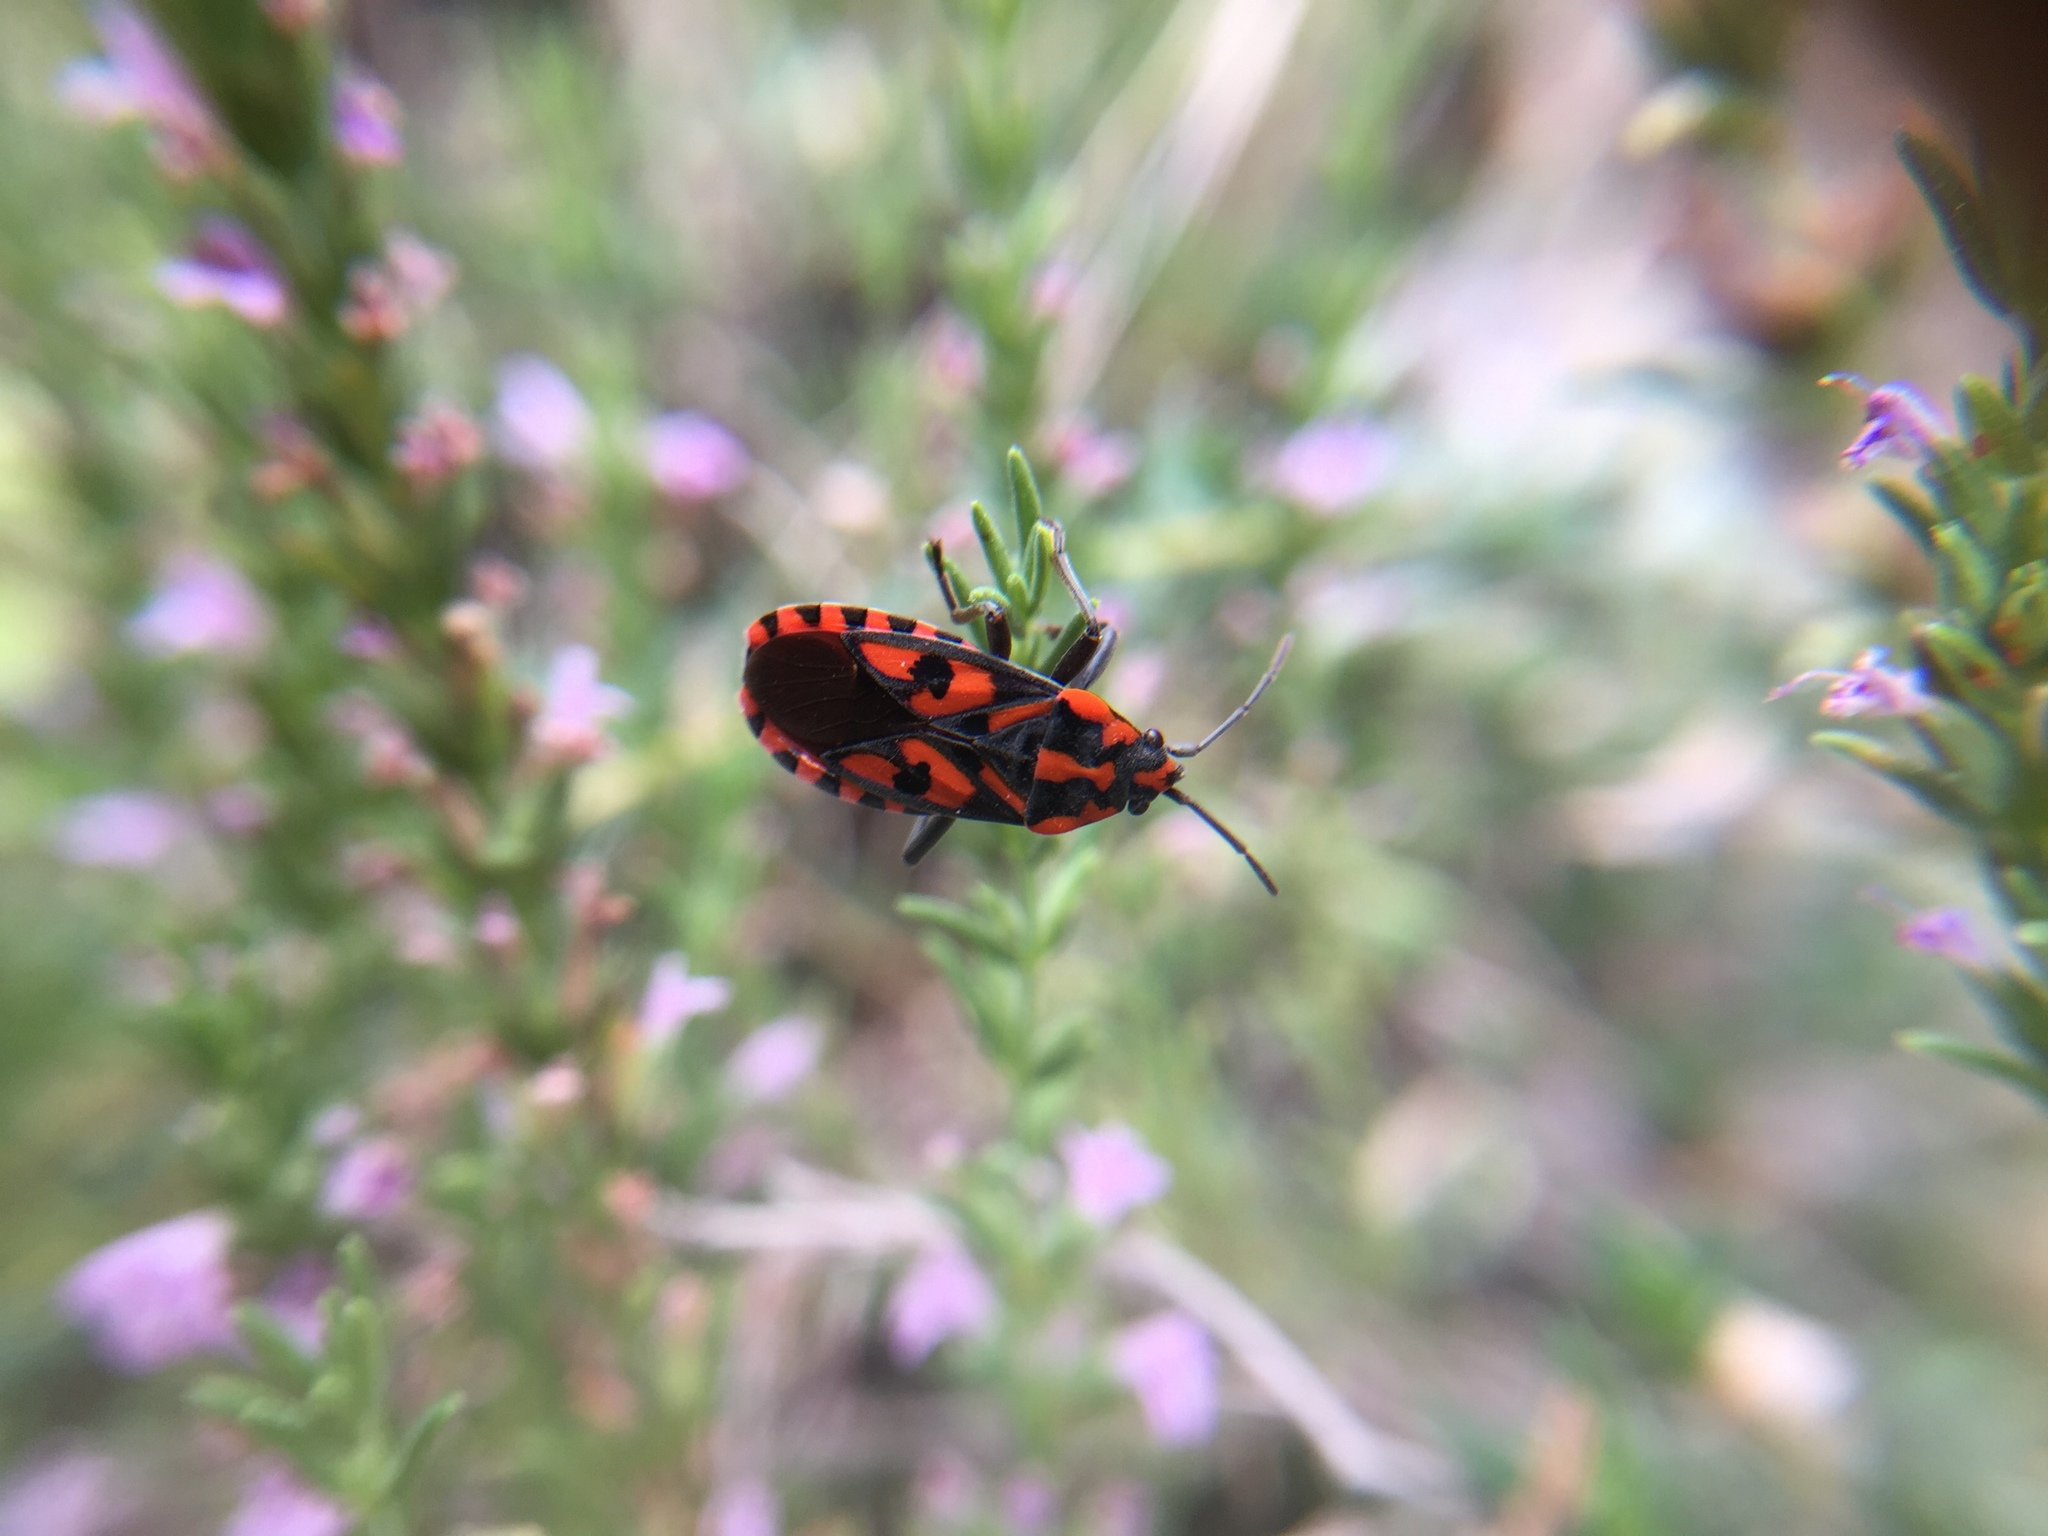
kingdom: Animalia
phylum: Arthropoda
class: Insecta
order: Hemiptera
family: Lygaeidae
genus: Spilostethus
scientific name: Spilostethus saxatilis
